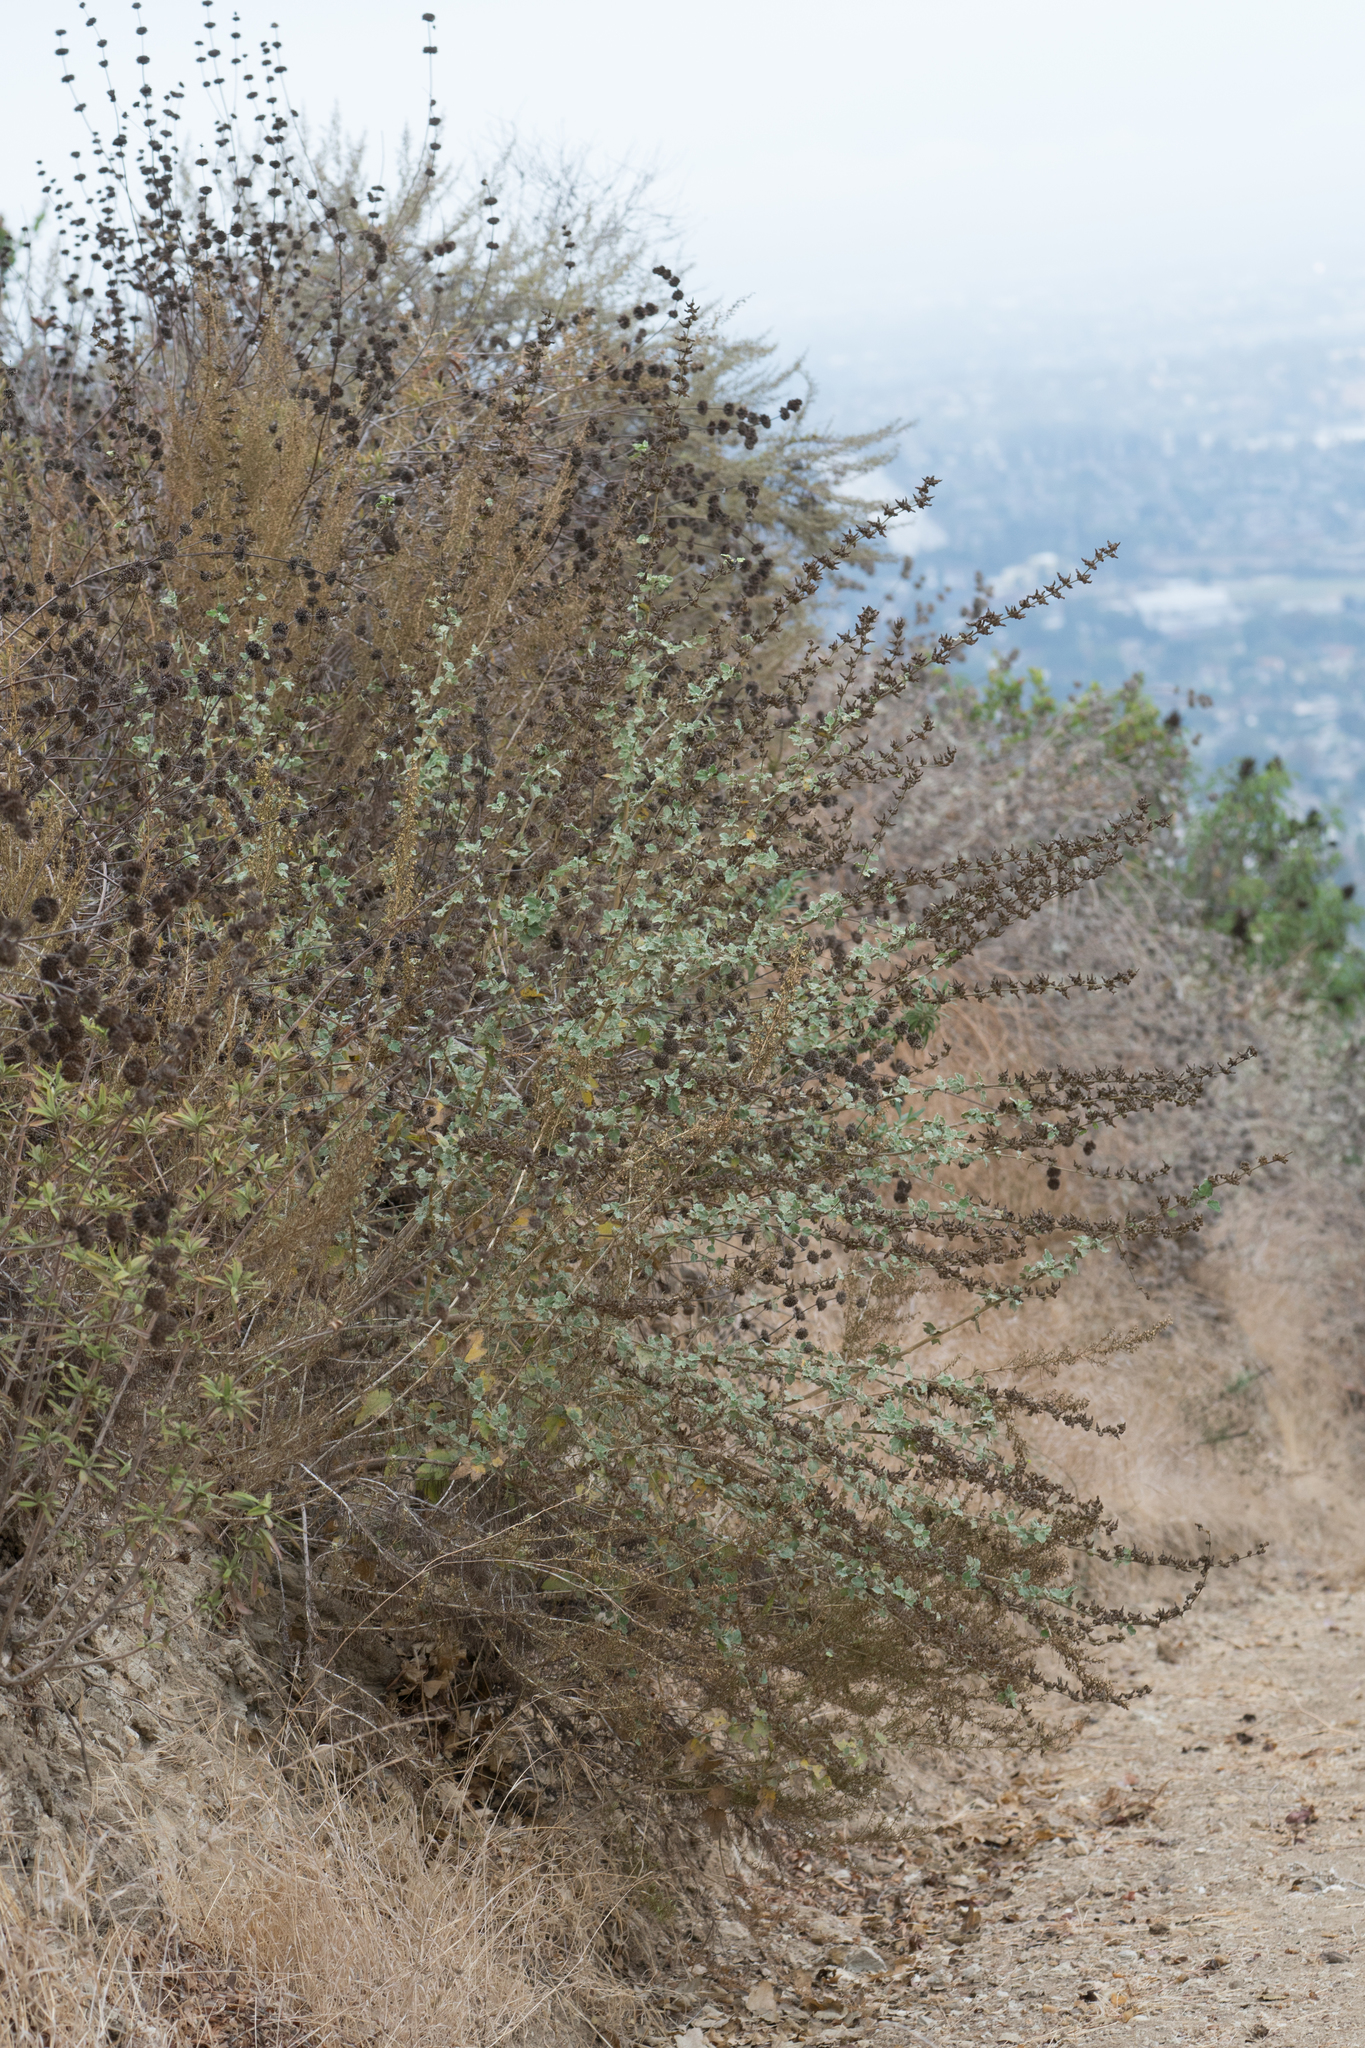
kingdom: Plantae
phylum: Tracheophyta
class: Magnoliopsida
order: Malvales
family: Malvaceae
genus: Malacothamnus
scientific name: Malacothamnus fasciculatus
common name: Sant cruz island bush-mallow
